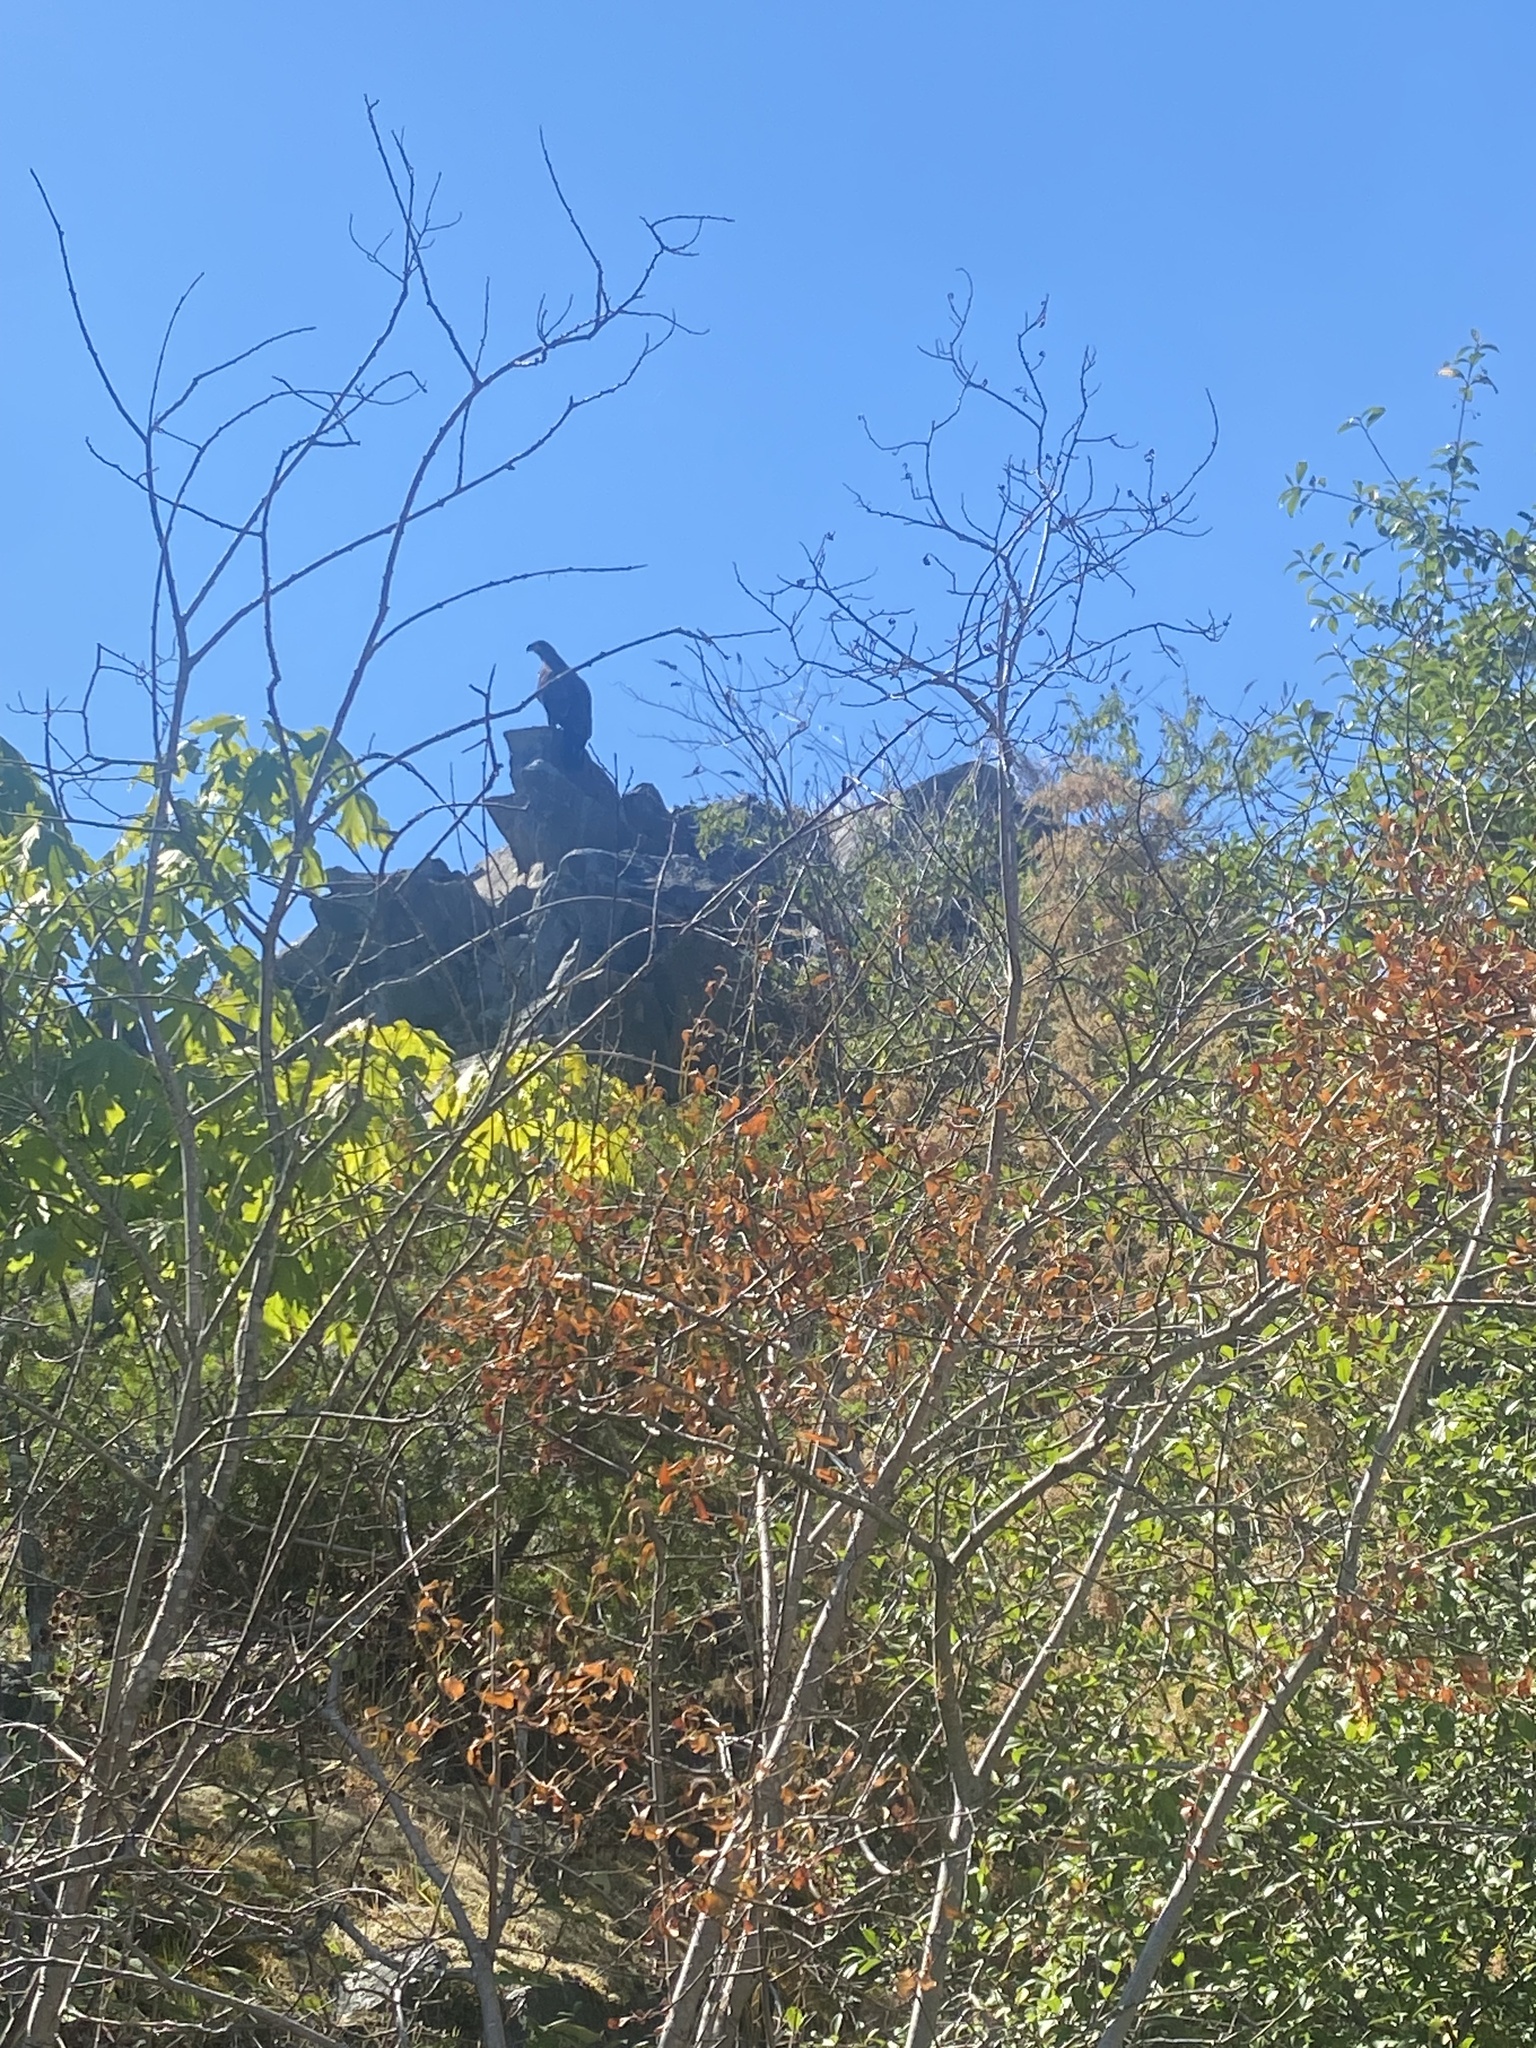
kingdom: Animalia
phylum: Chordata
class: Aves
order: Accipitriformes
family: Accipitridae
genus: Haliaeetus
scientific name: Haliaeetus leucocephalus
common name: Bald eagle
